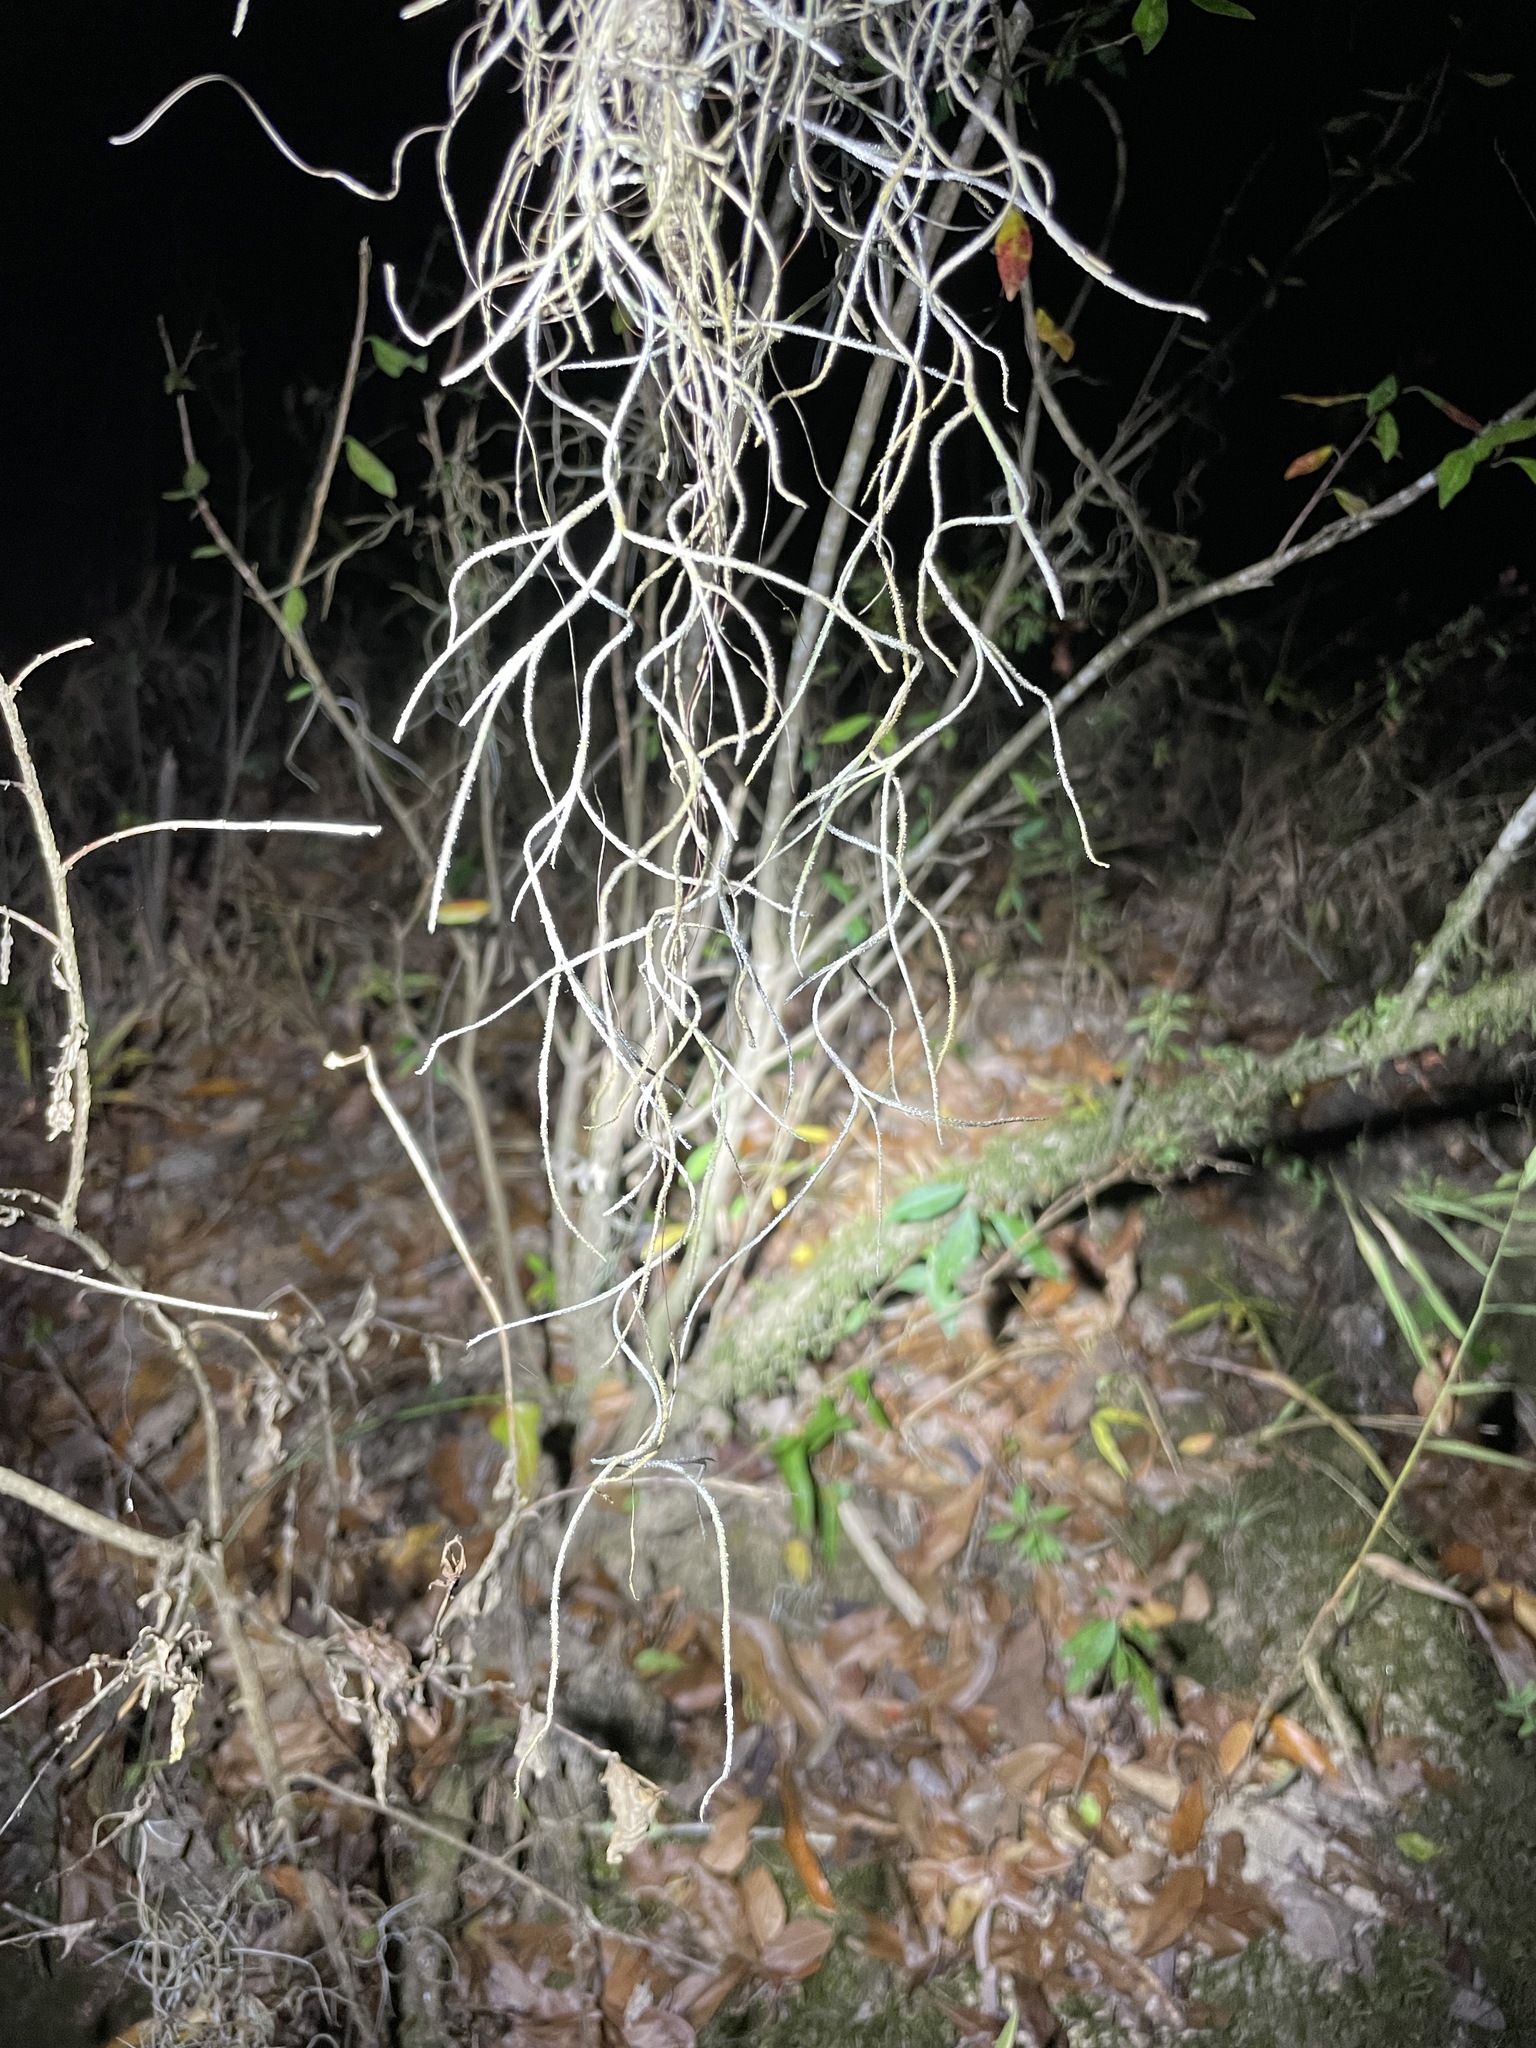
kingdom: Plantae
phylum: Tracheophyta
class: Liliopsida
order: Poales
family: Bromeliaceae
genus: Tillandsia
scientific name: Tillandsia usneoides
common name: Spanish moss
